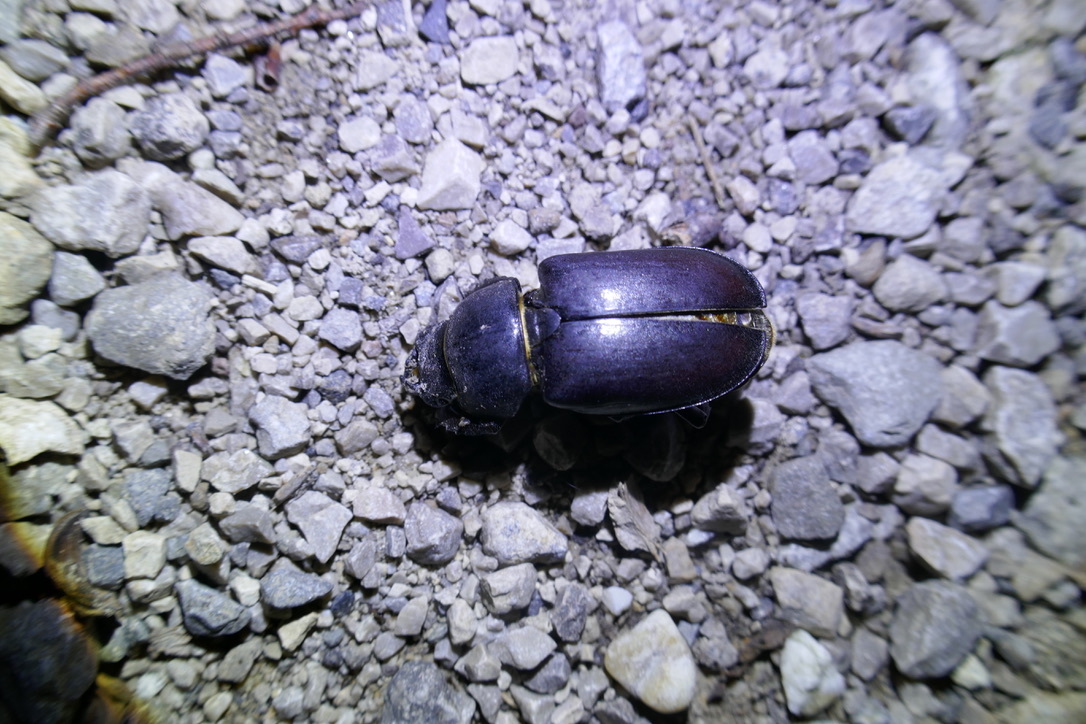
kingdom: Animalia
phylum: Arthropoda
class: Insecta
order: Coleoptera
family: Lucanidae
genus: Lucanus
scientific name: Lucanus cervus
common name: Stag beetle
